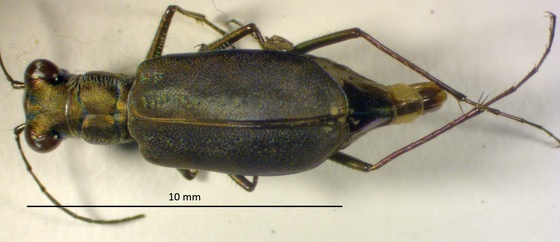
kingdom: Animalia
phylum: Arthropoda
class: Insecta
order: Coleoptera
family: Carabidae
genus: Cicindela
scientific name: Cicindela punctulata
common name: Punctured tiger beetle
